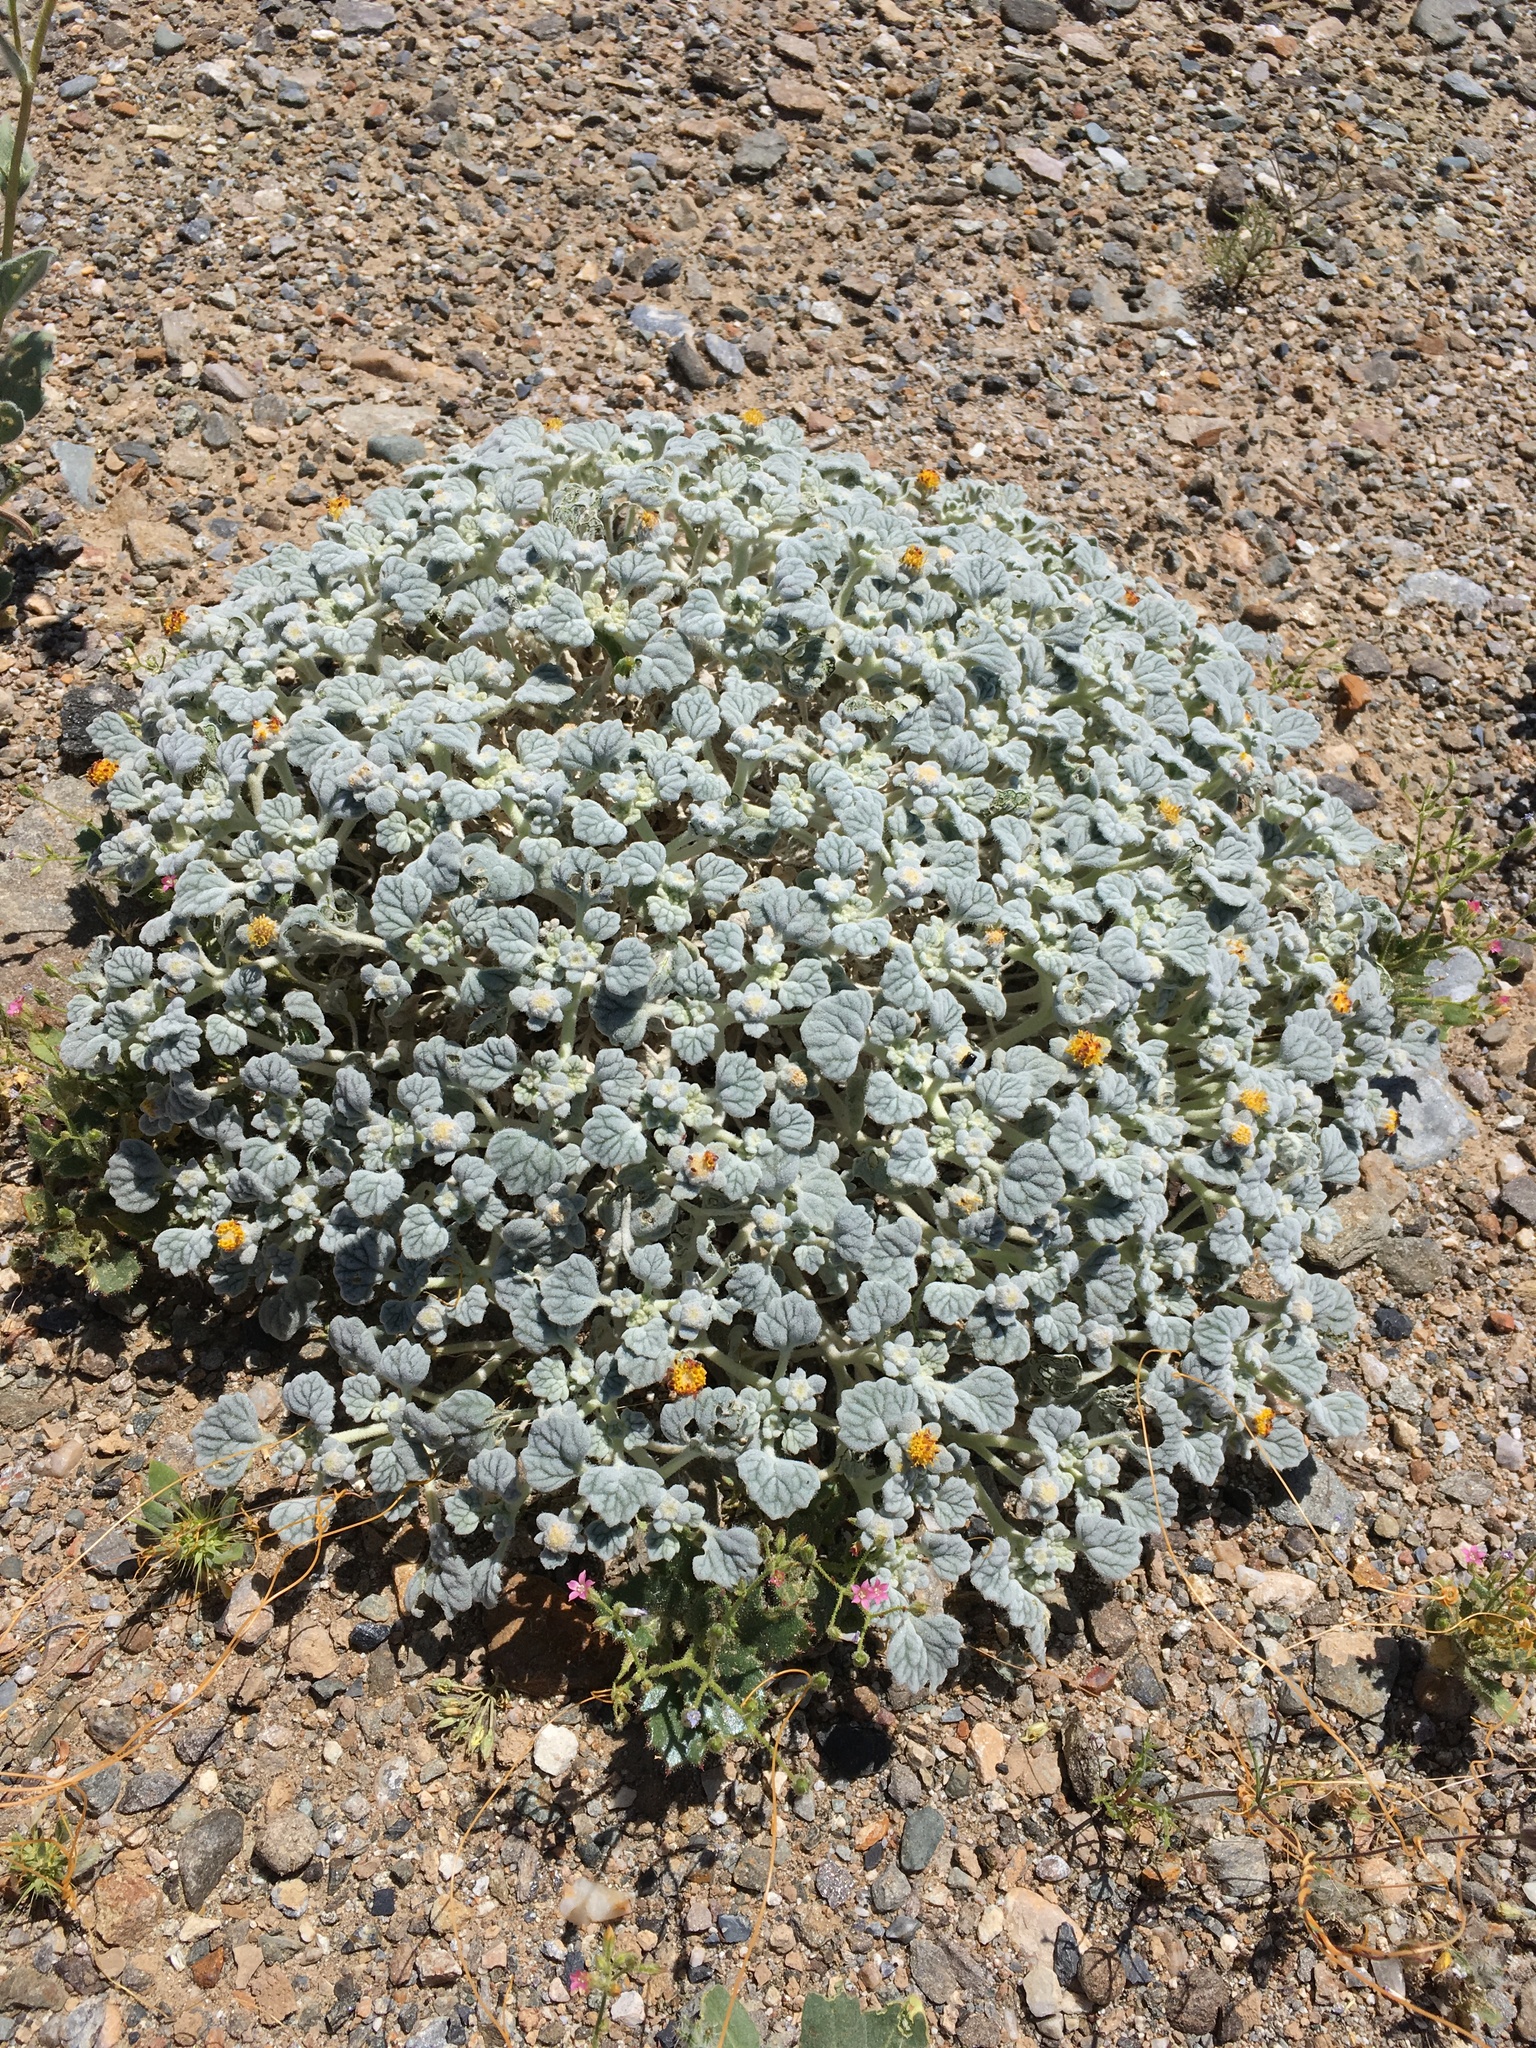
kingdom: Plantae
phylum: Tracheophyta
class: Magnoliopsida
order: Asterales
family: Asteraceae
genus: Psathyrotes
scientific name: Psathyrotes ramosissima
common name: Turtleback
